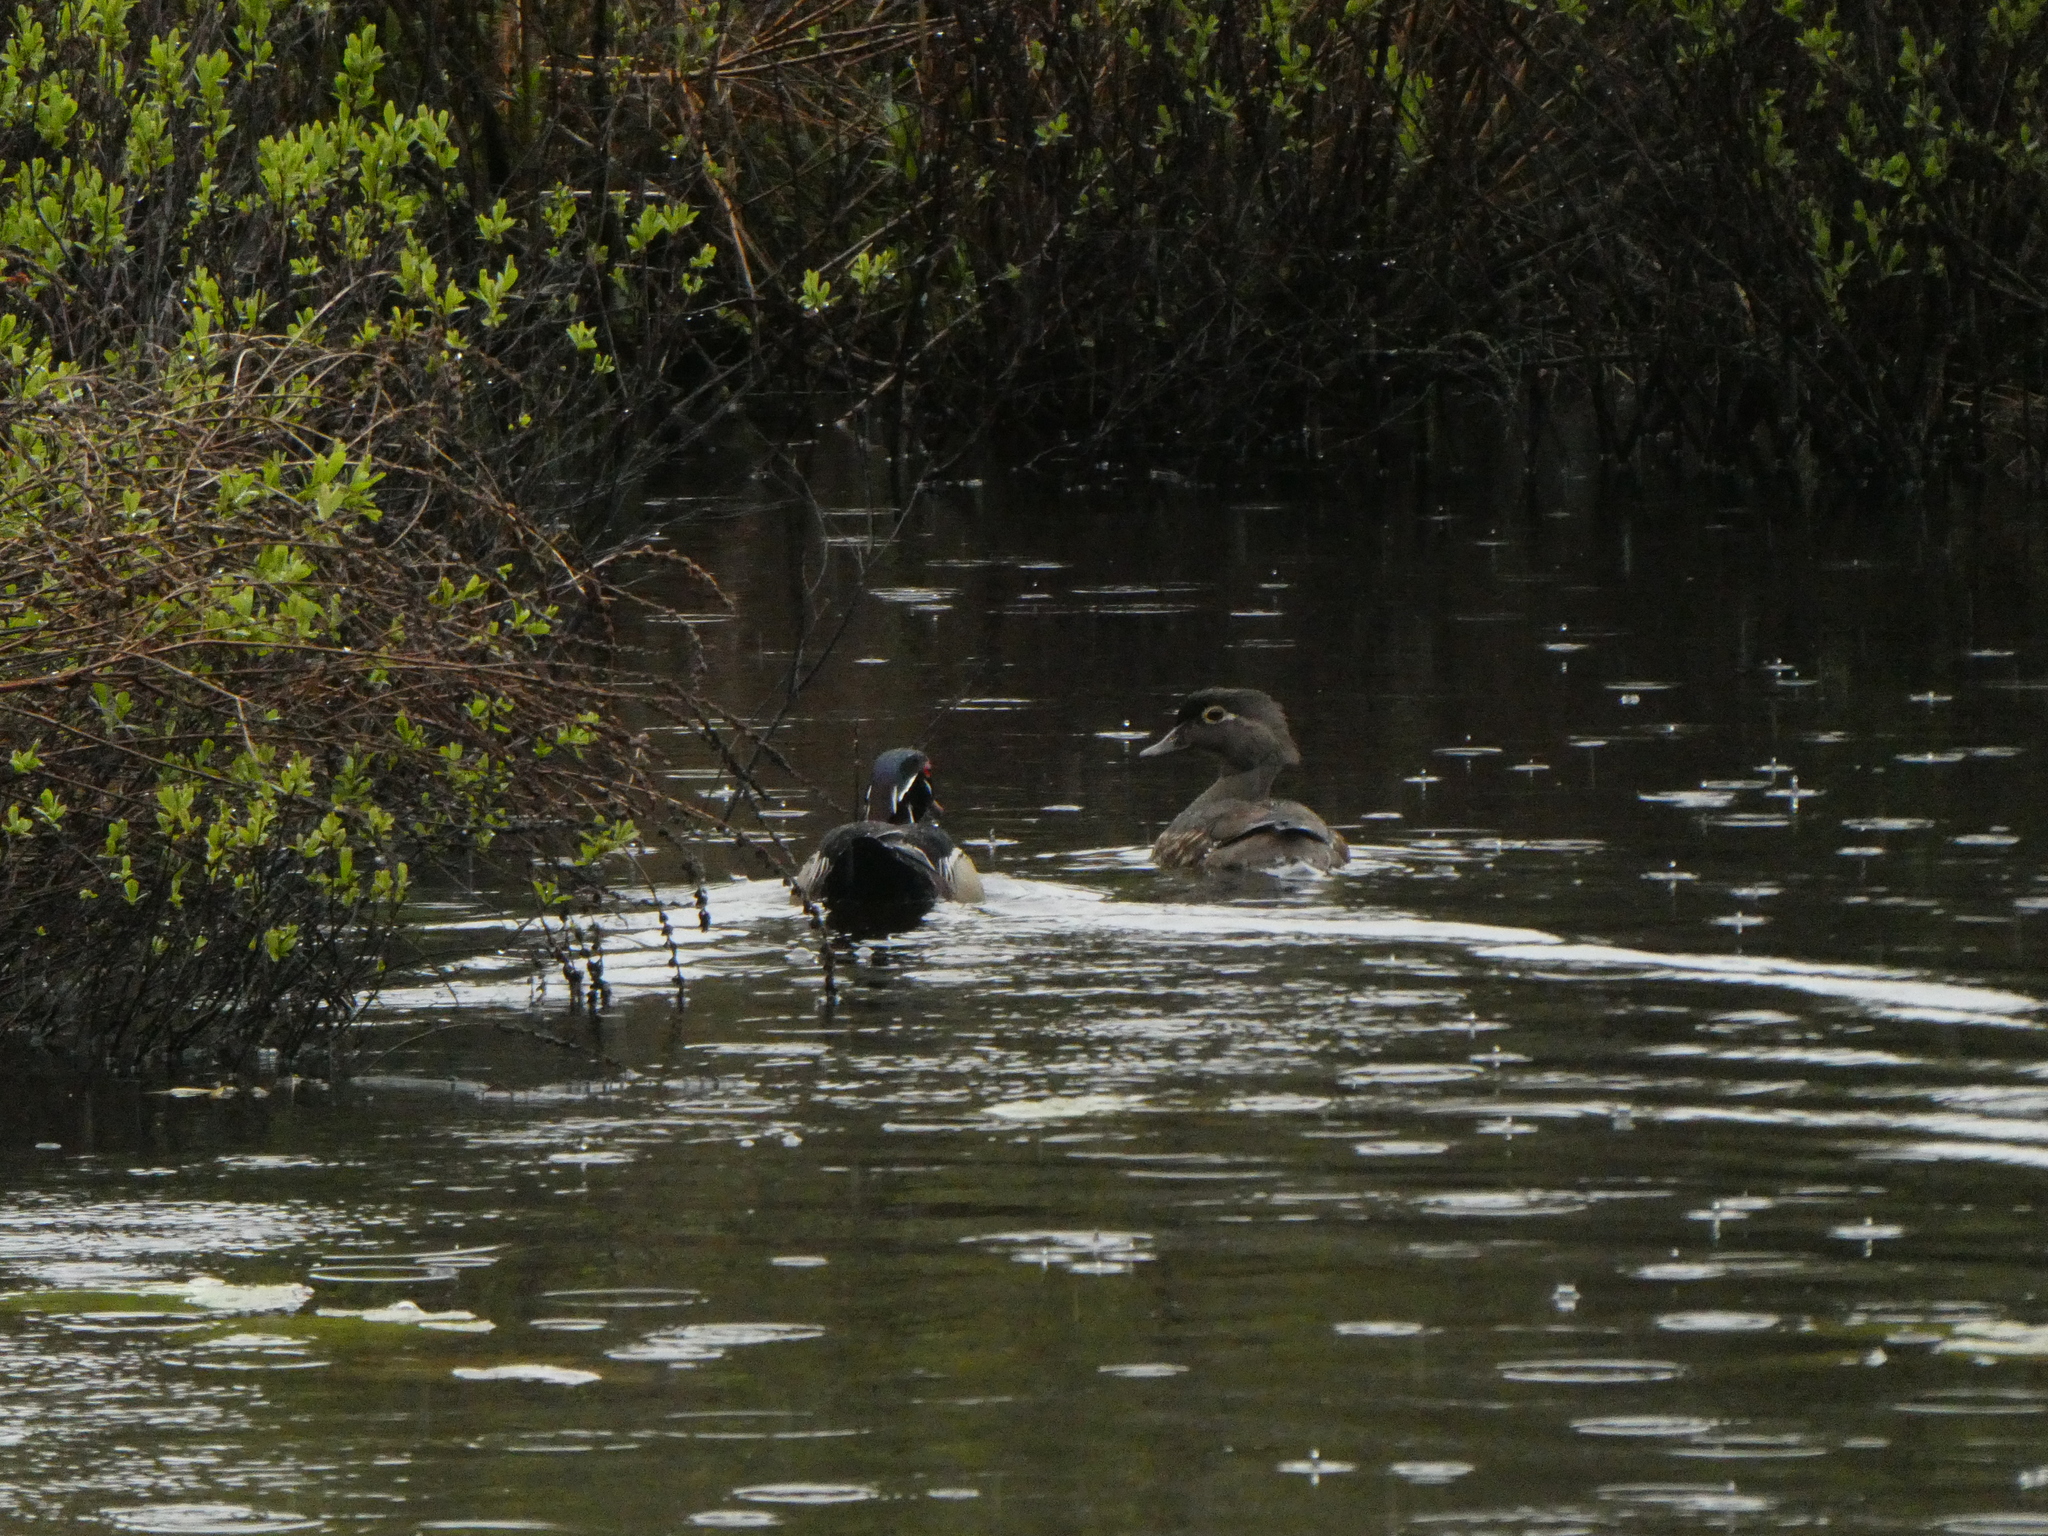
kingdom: Animalia
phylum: Chordata
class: Aves
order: Anseriformes
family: Anatidae
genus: Aix
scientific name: Aix sponsa
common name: Wood duck
